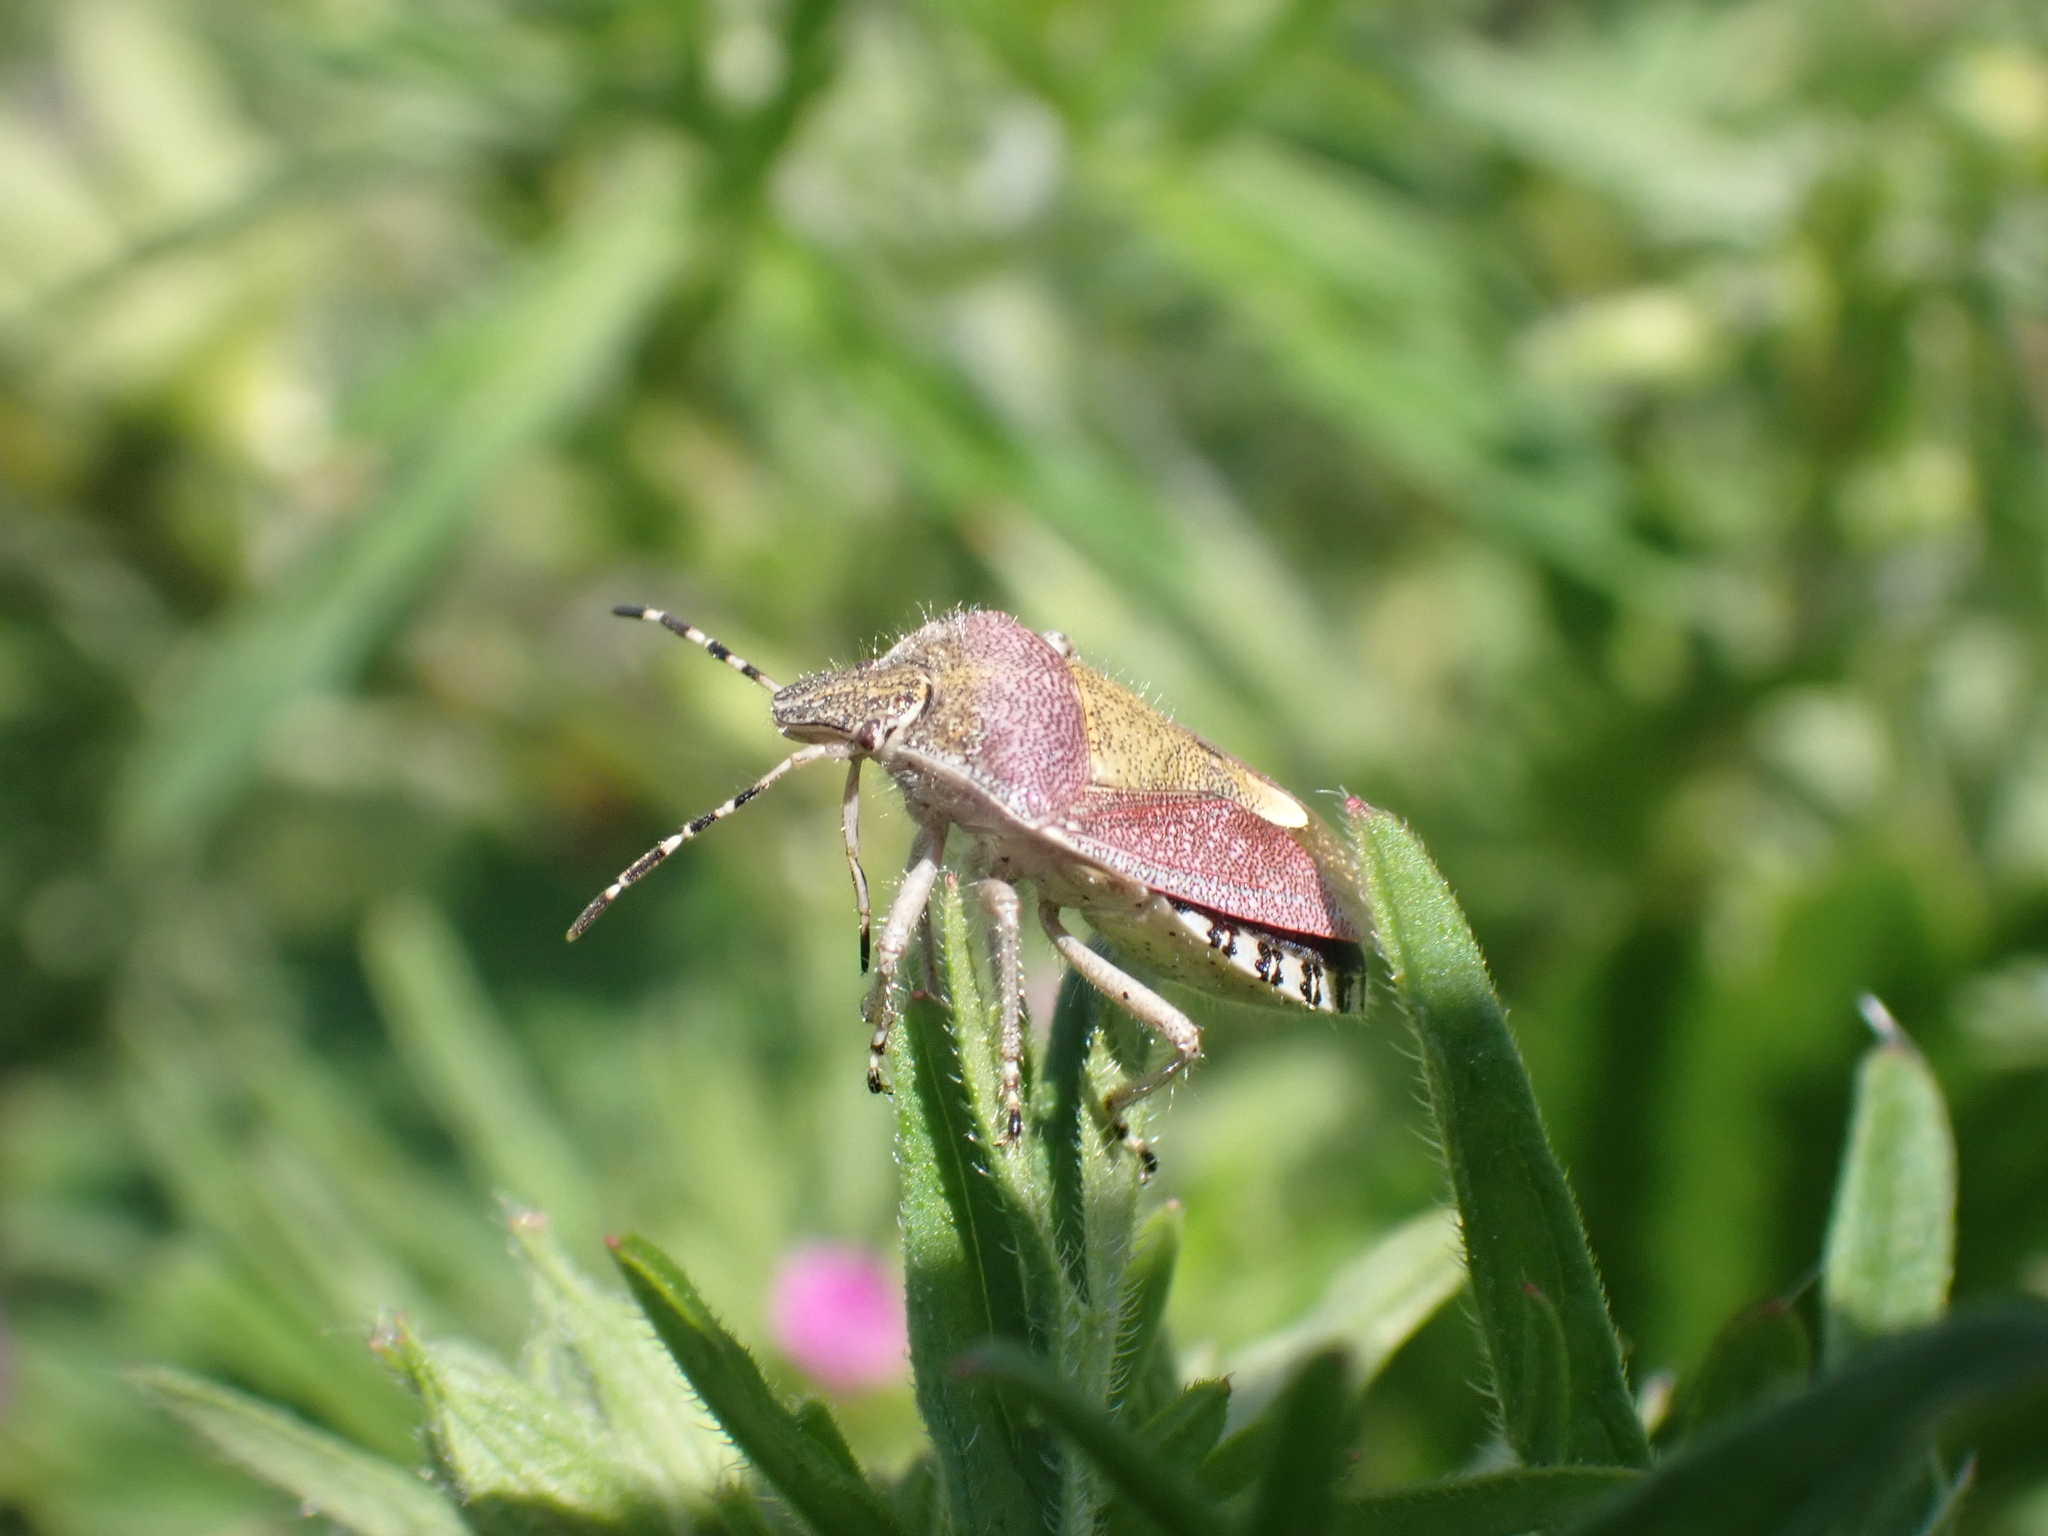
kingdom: Animalia
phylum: Arthropoda
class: Insecta
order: Hemiptera
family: Pentatomidae
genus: Dolycoris
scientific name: Dolycoris baccarum
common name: Sloe bug
